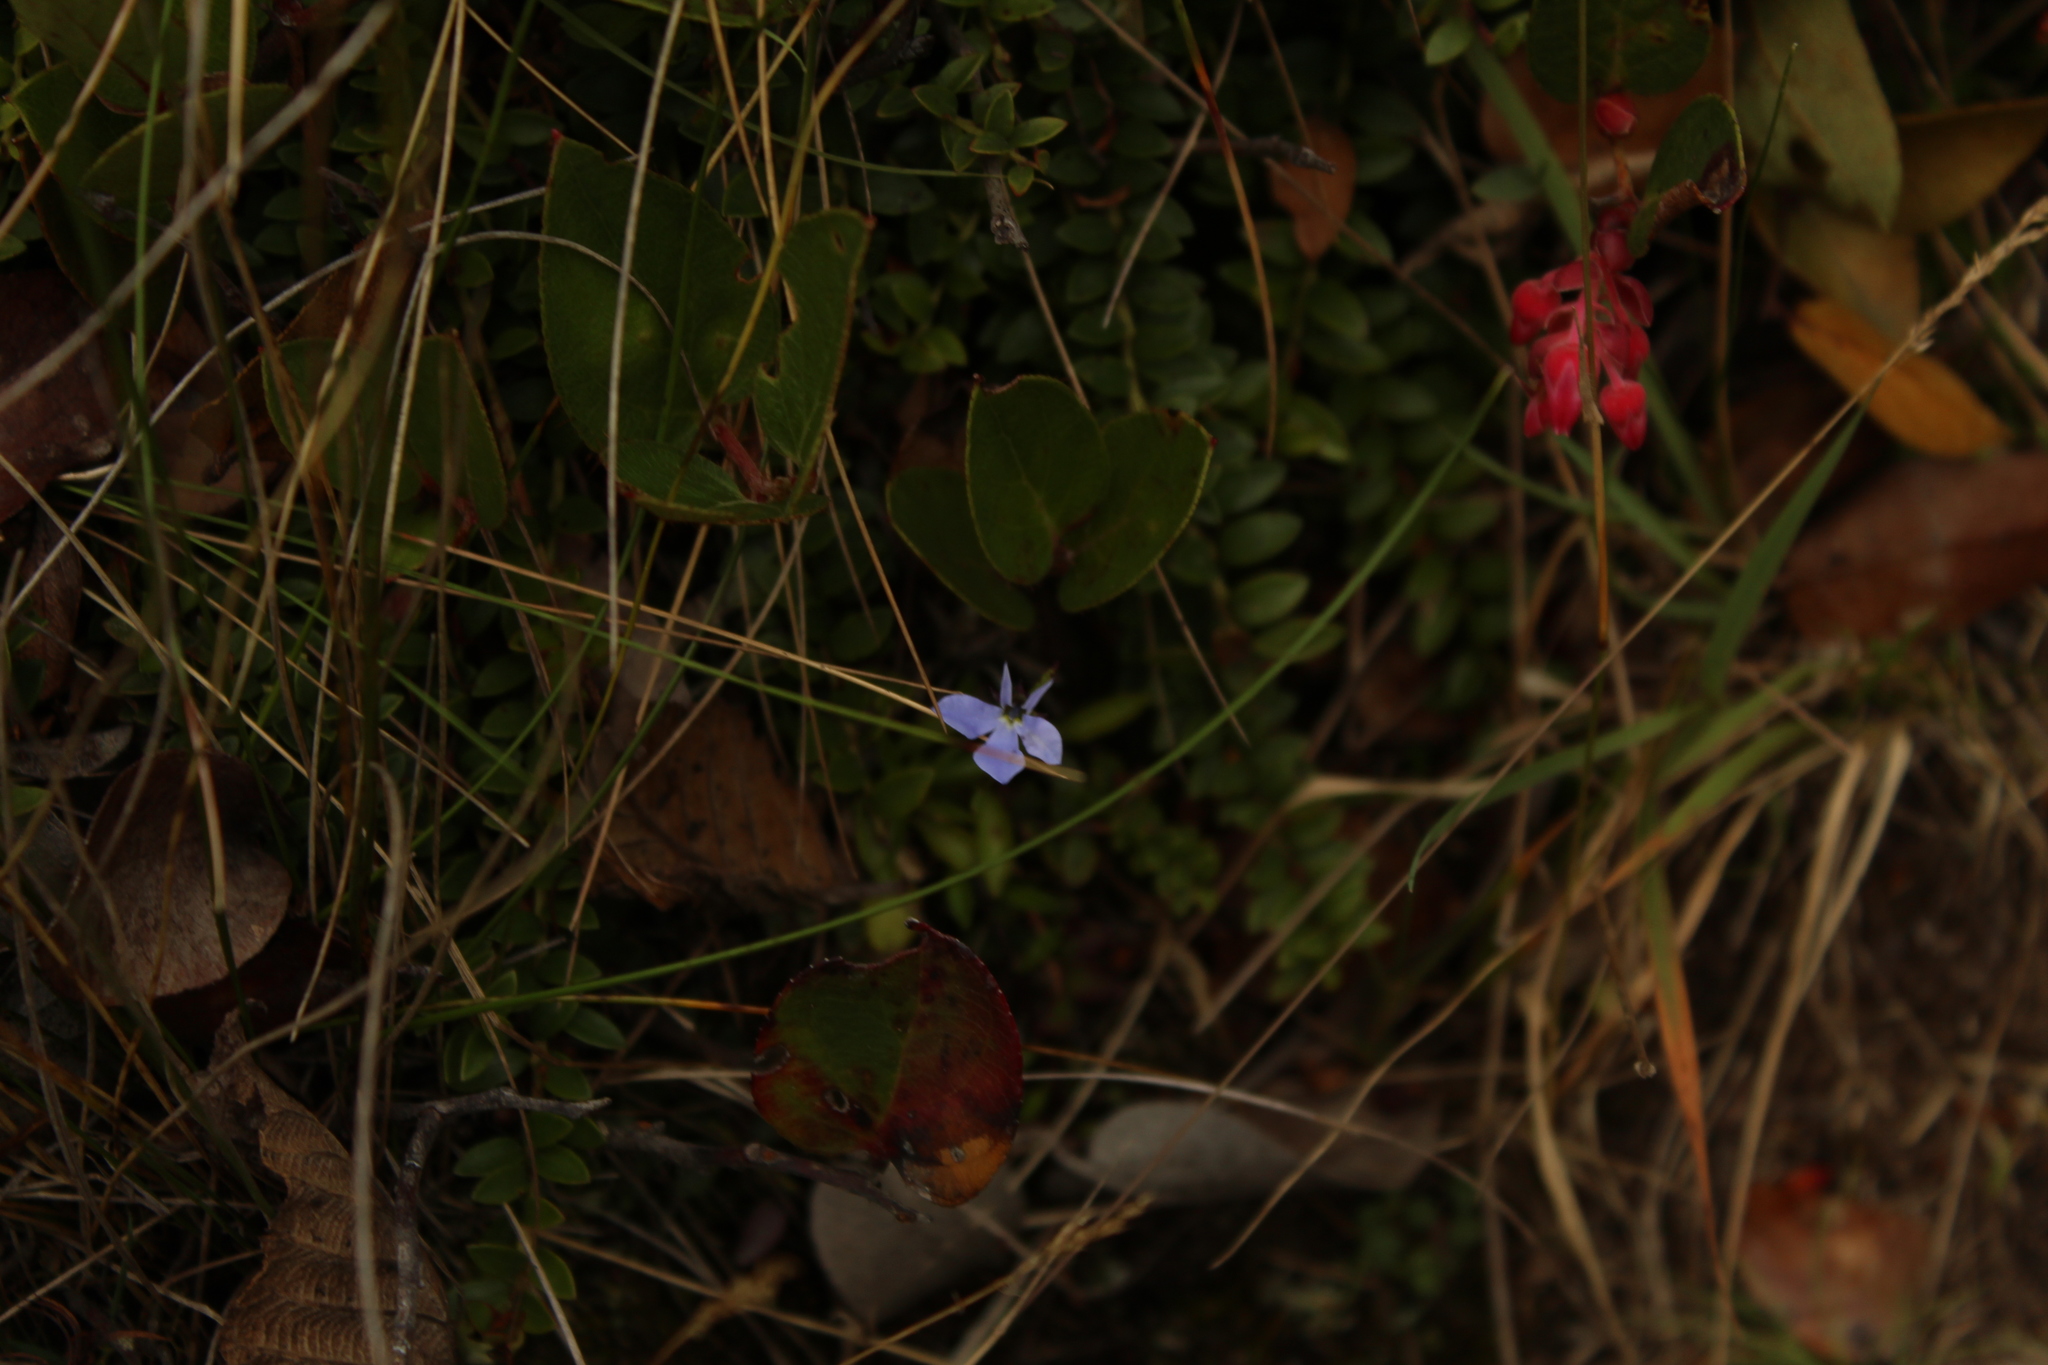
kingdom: Plantae
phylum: Tracheophyta
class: Magnoliopsida
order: Asterales
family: Campanulaceae
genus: Lobelia
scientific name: Lobelia tenera
